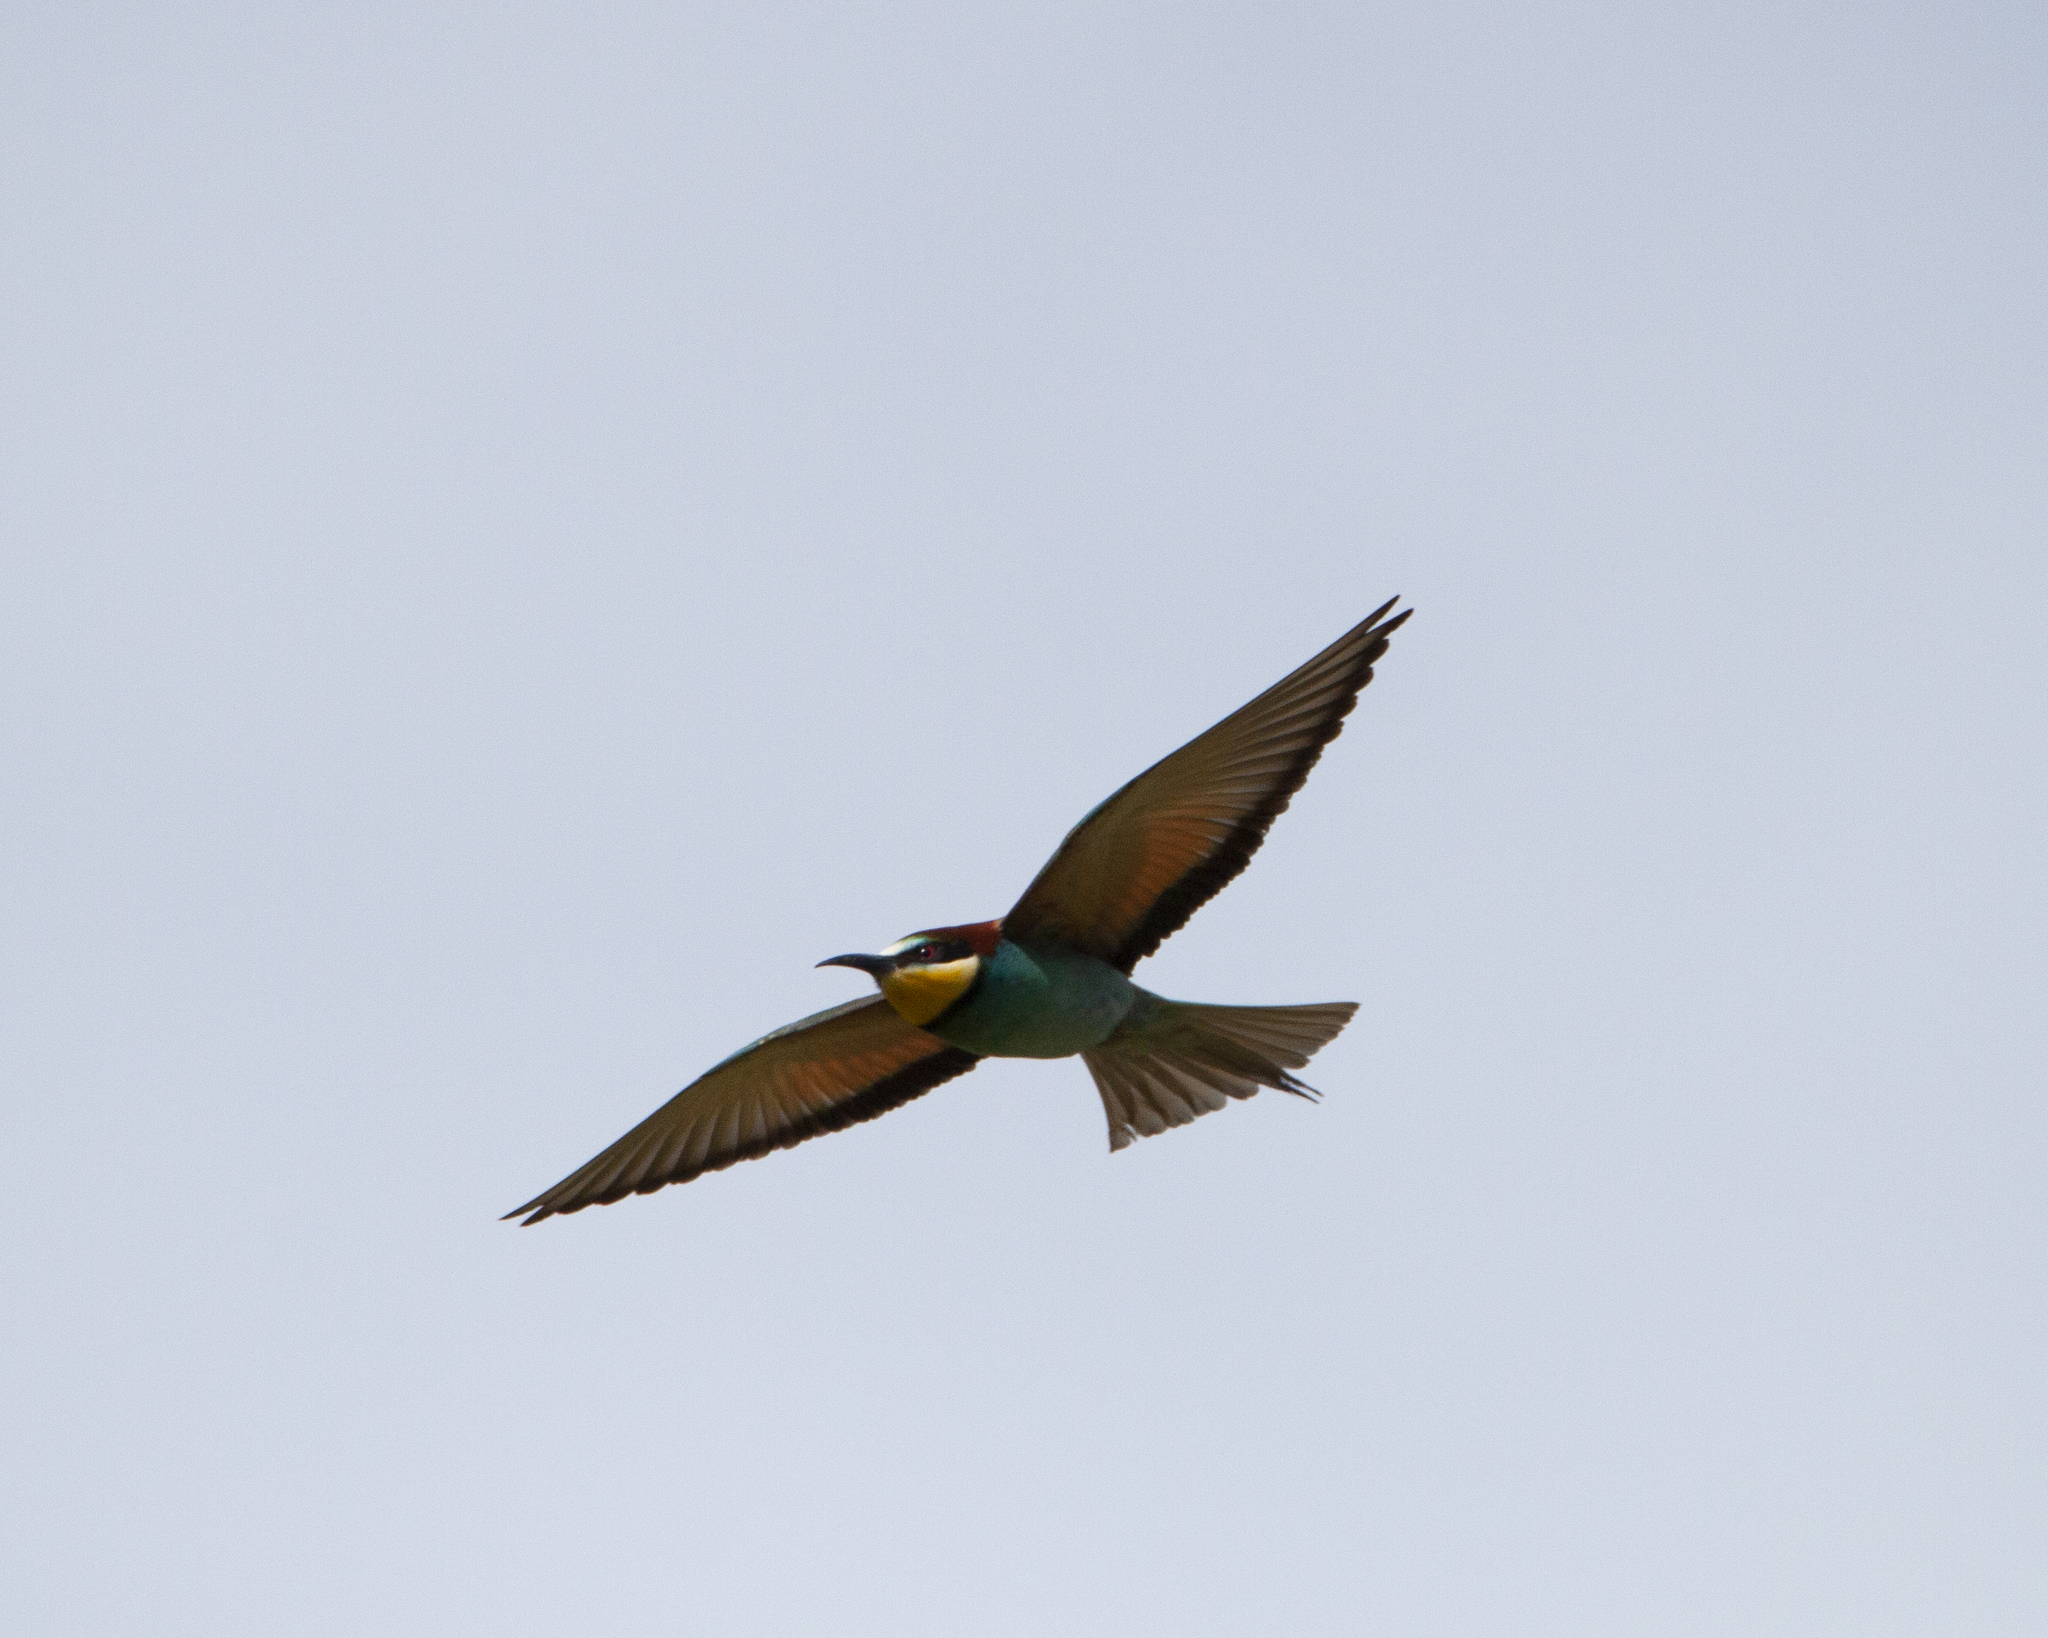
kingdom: Animalia
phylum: Chordata
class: Aves
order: Coraciiformes
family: Meropidae
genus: Merops
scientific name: Merops apiaster
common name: European bee-eater
